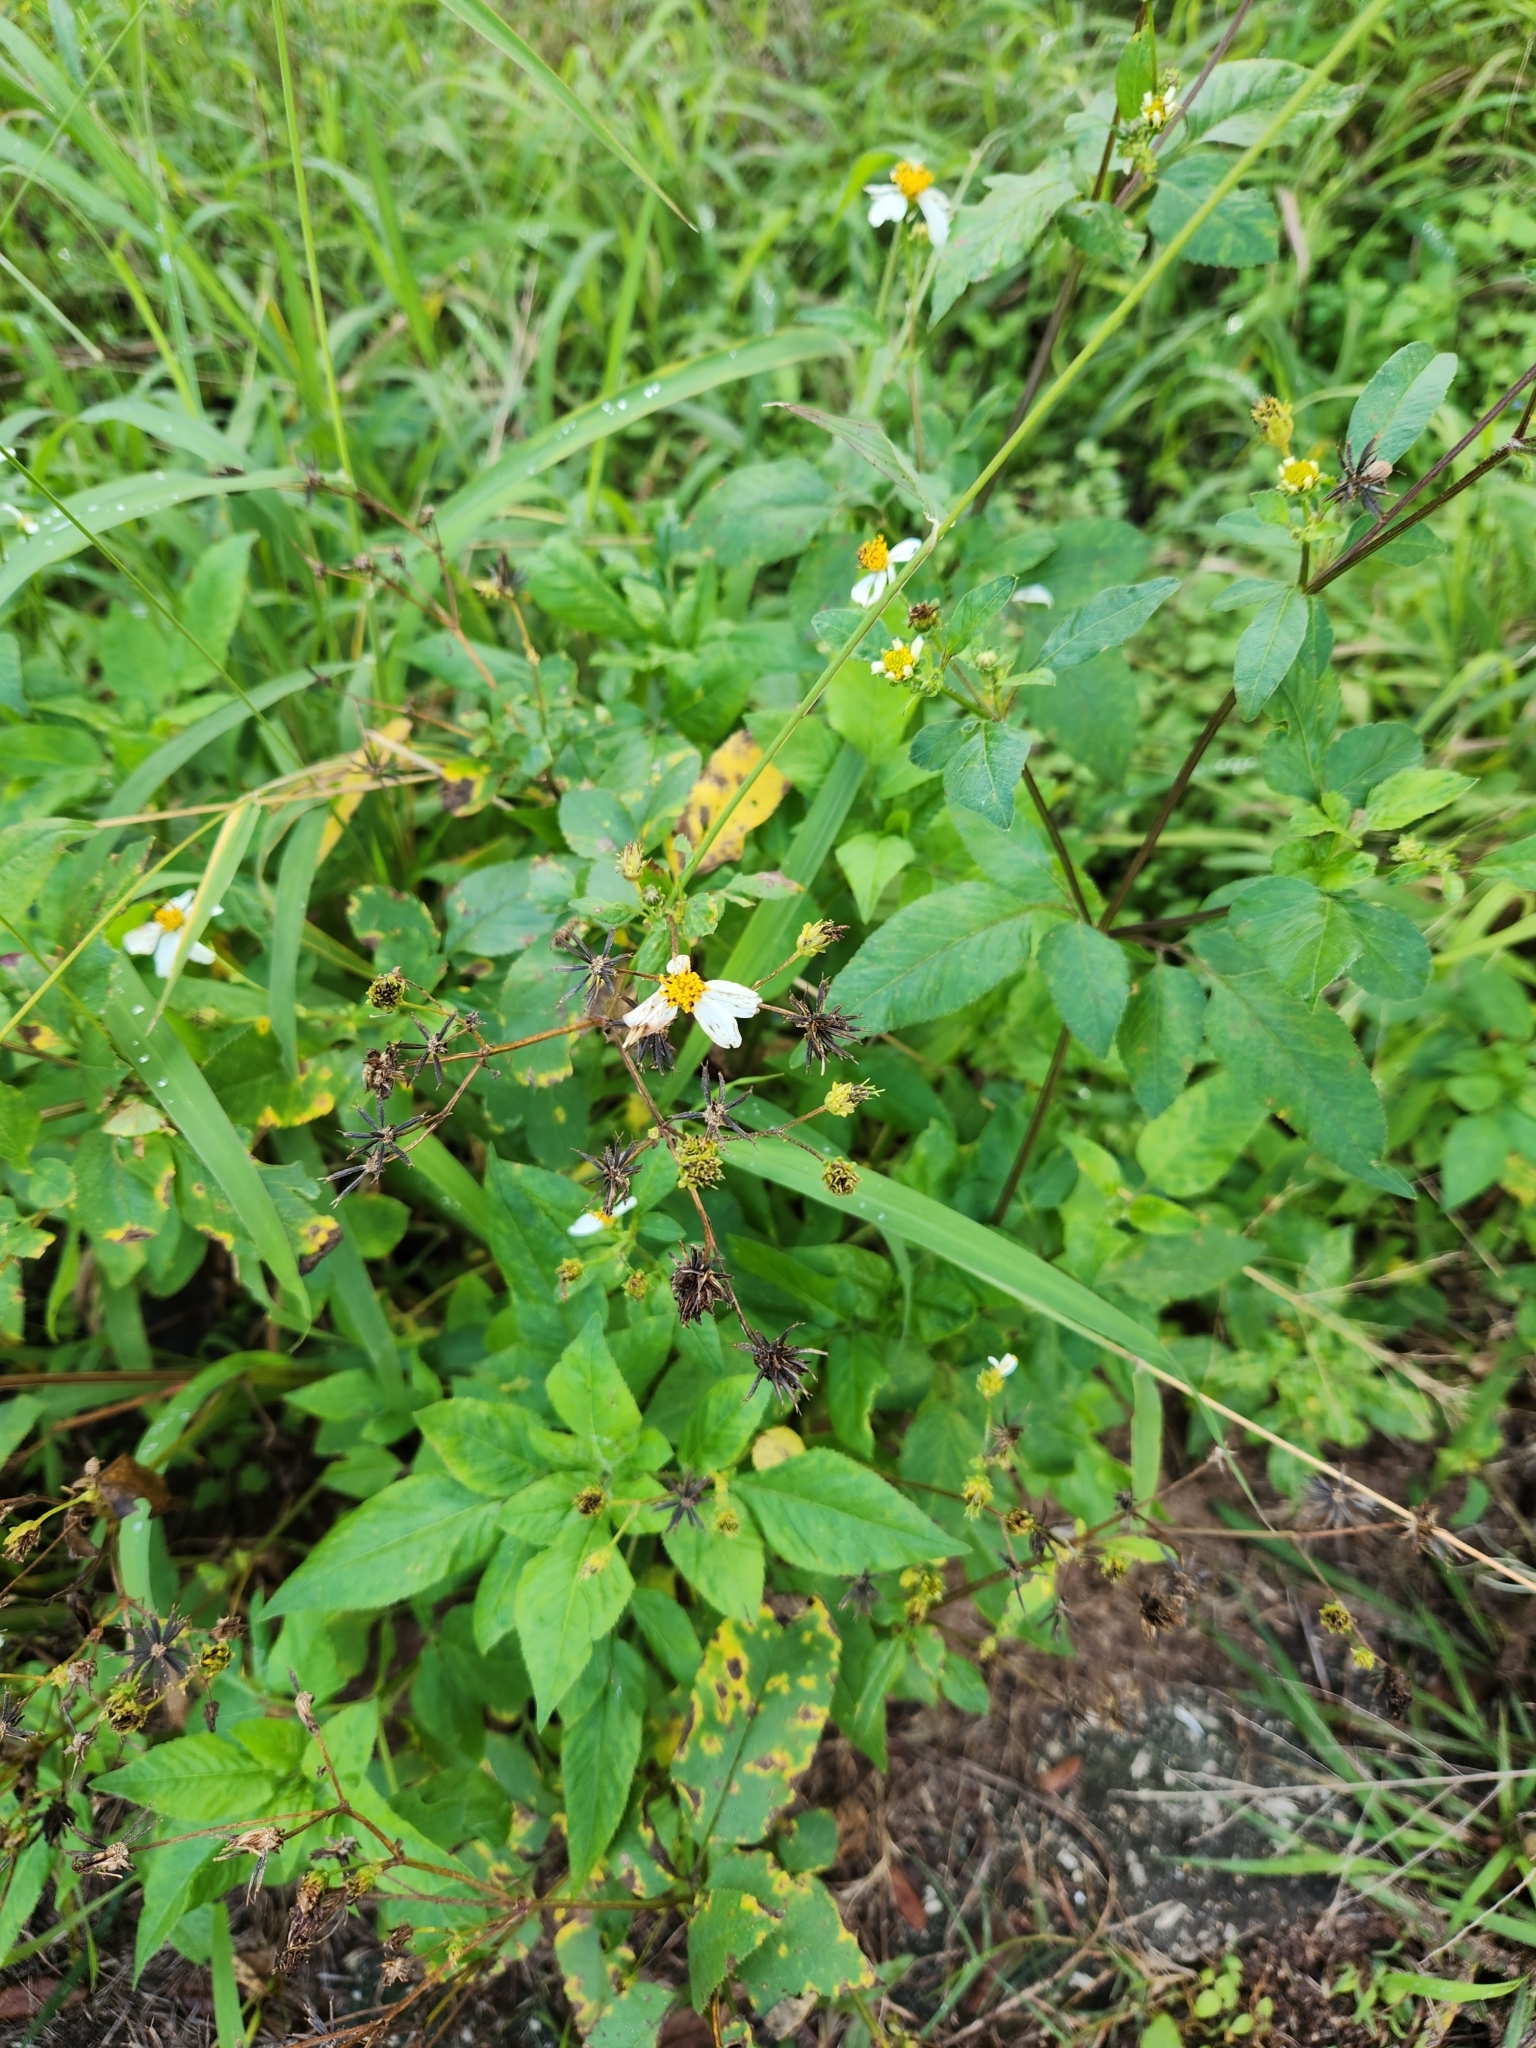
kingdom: Plantae
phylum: Tracheophyta
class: Magnoliopsida
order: Asterales
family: Asteraceae
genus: Bidens
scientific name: Bidens alba
